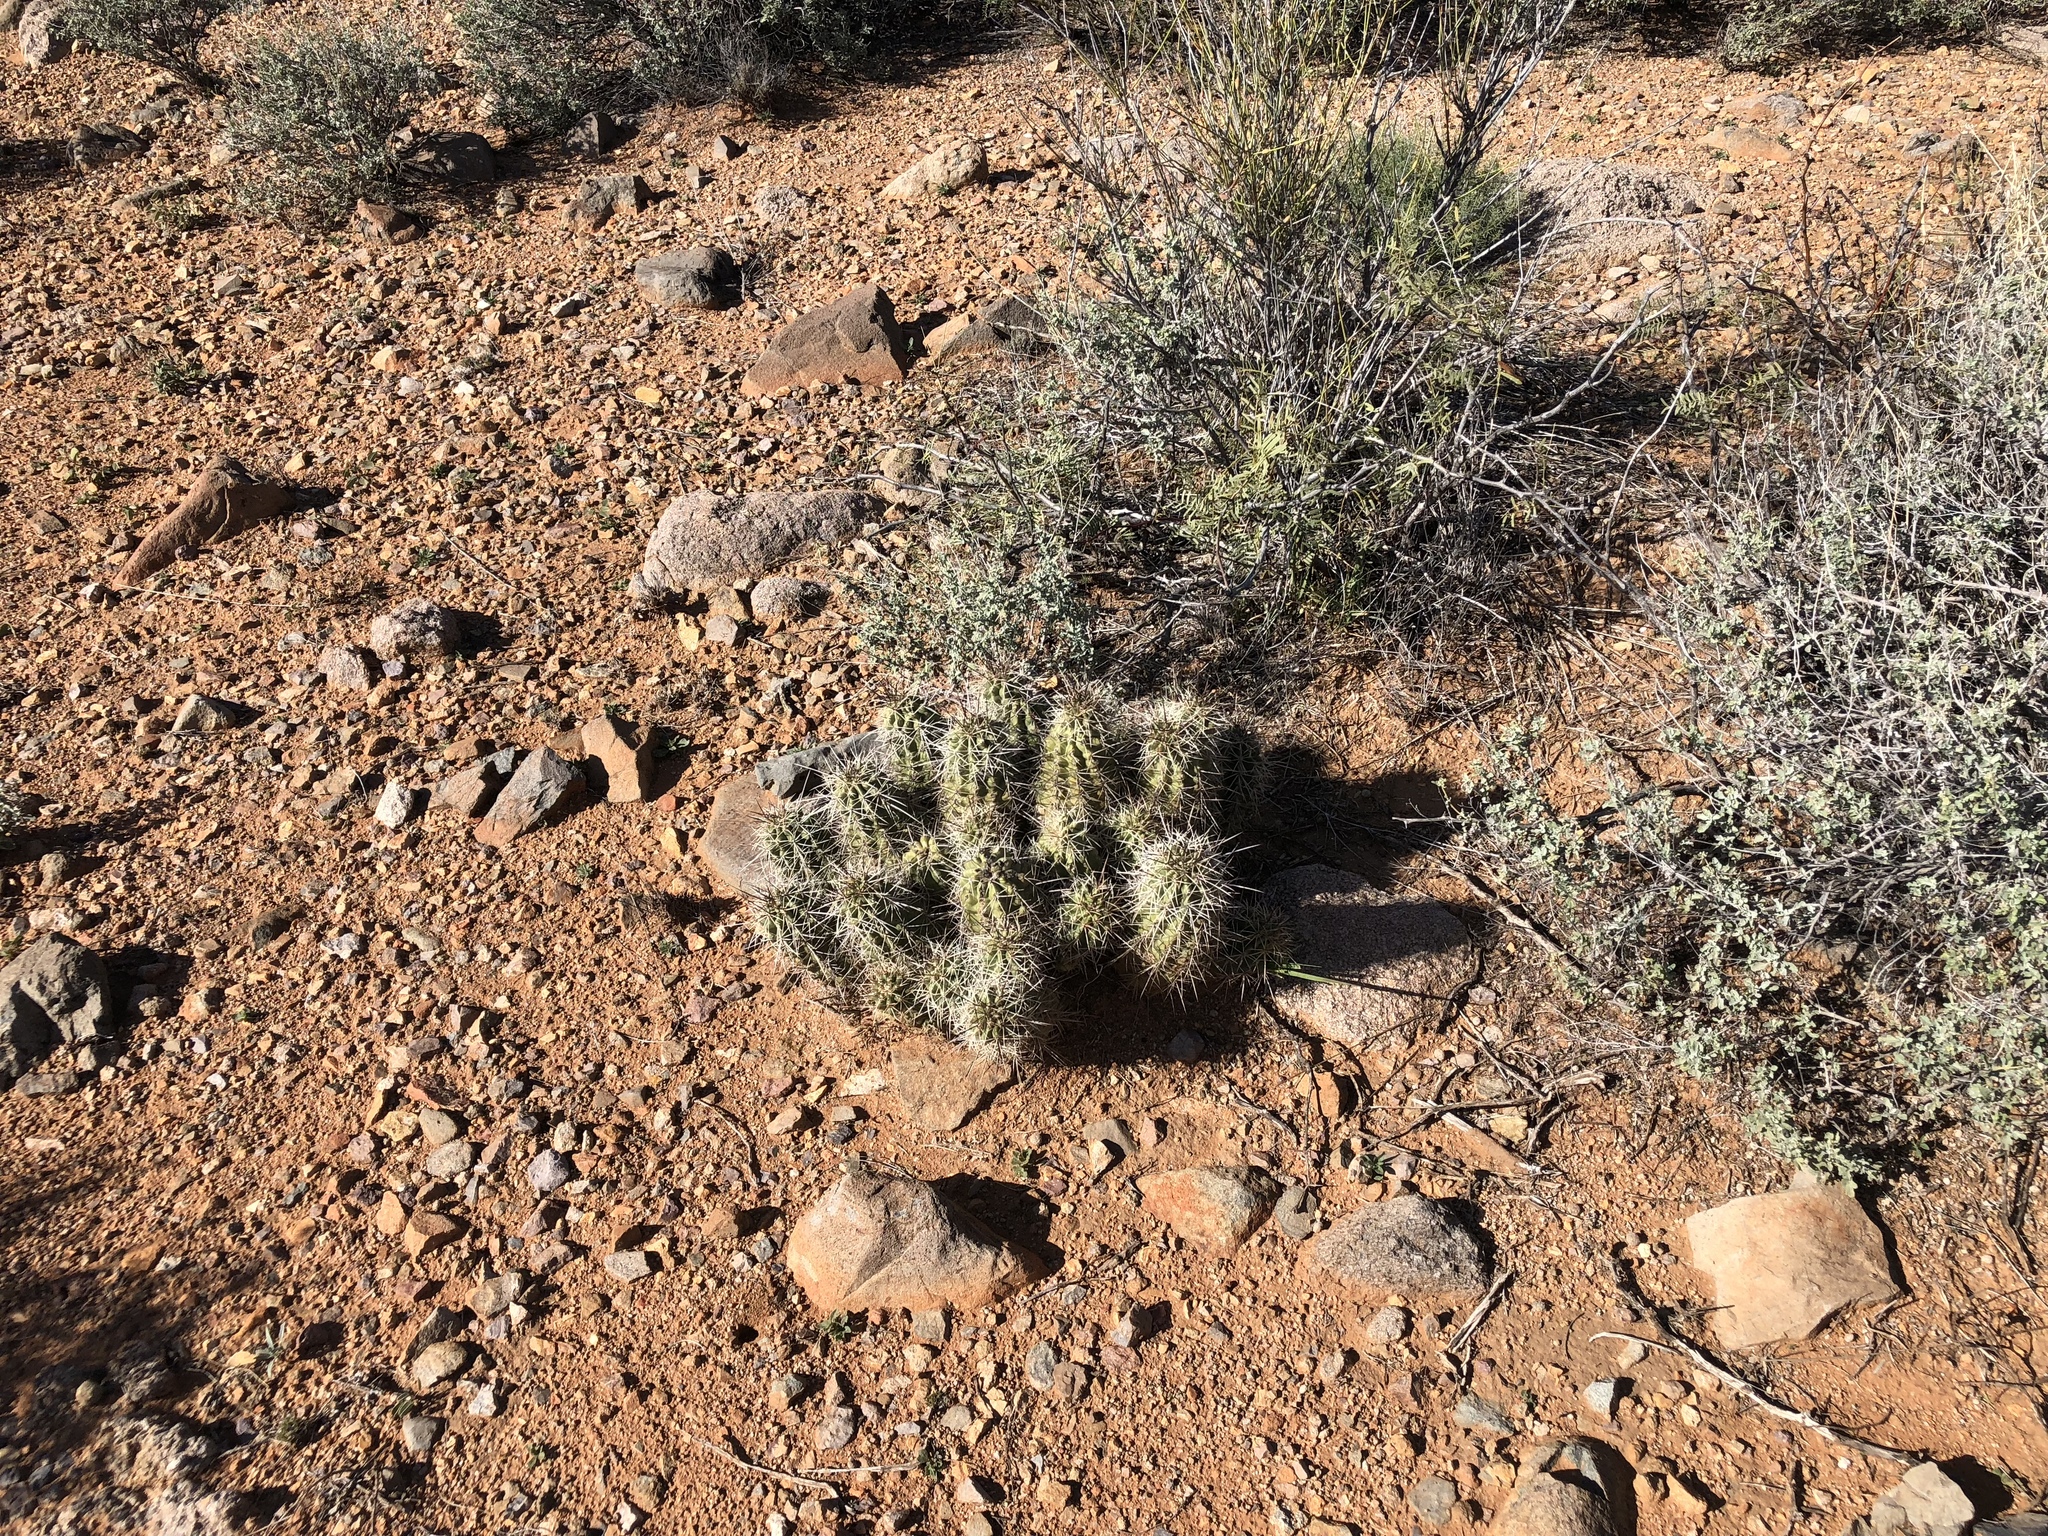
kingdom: Plantae
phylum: Tracheophyta
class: Magnoliopsida
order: Caryophyllales
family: Cactaceae
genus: Echinocereus
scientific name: Echinocereus coccineus
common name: Scarlet hedgehog cactus
